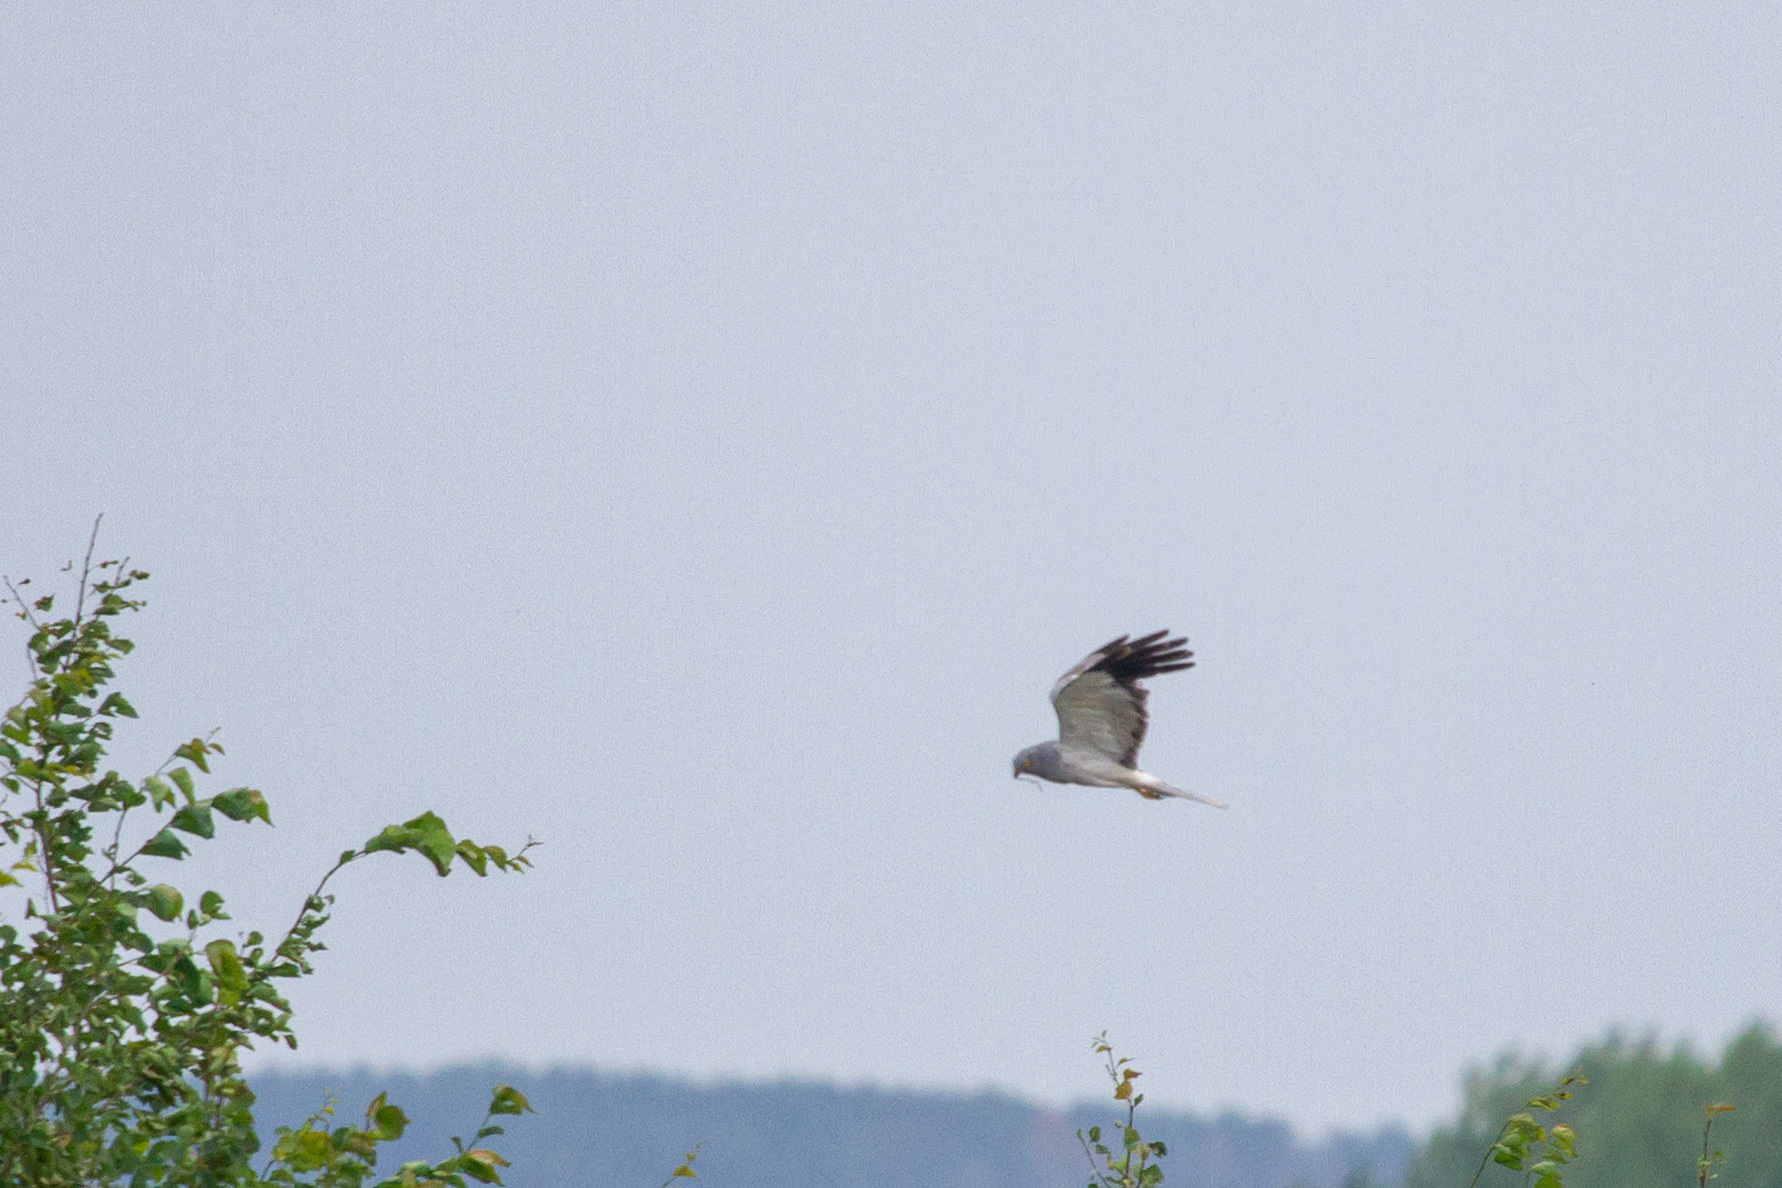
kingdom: Animalia
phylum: Chordata
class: Aves
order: Accipitriformes
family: Accipitridae
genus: Circus
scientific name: Circus cyaneus
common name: Hen harrier
